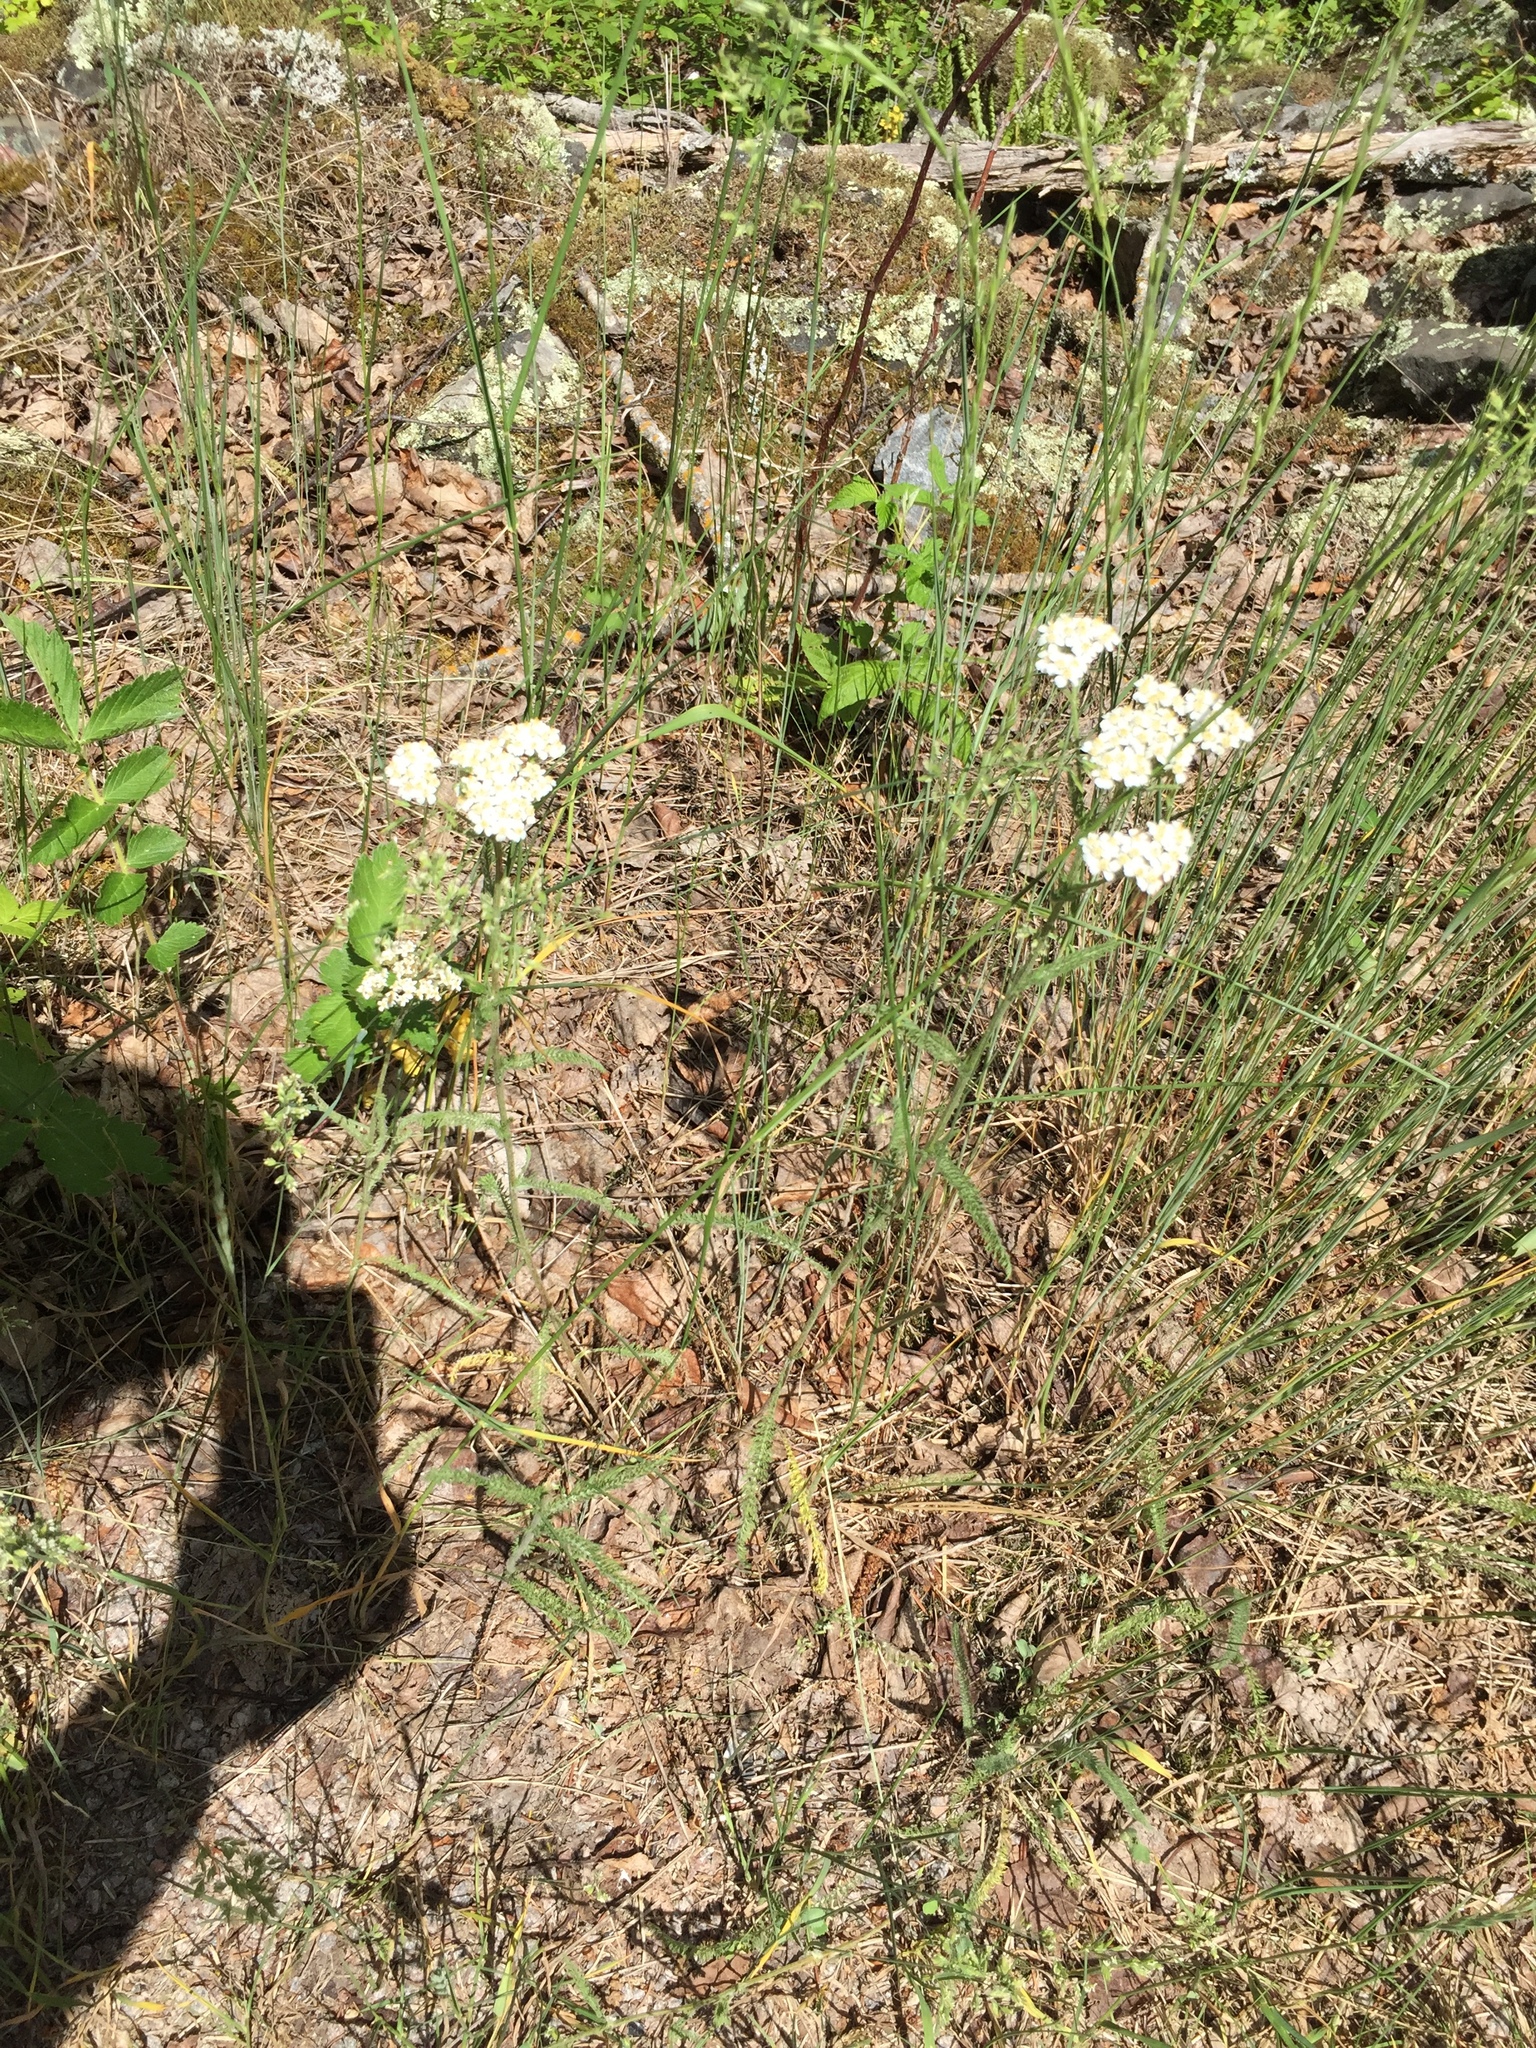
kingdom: Plantae
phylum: Tracheophyta
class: Magnoliopsida
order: Asterales
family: Asteraceae
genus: Achillea
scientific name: Achillea millefolium
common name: Yarrow
